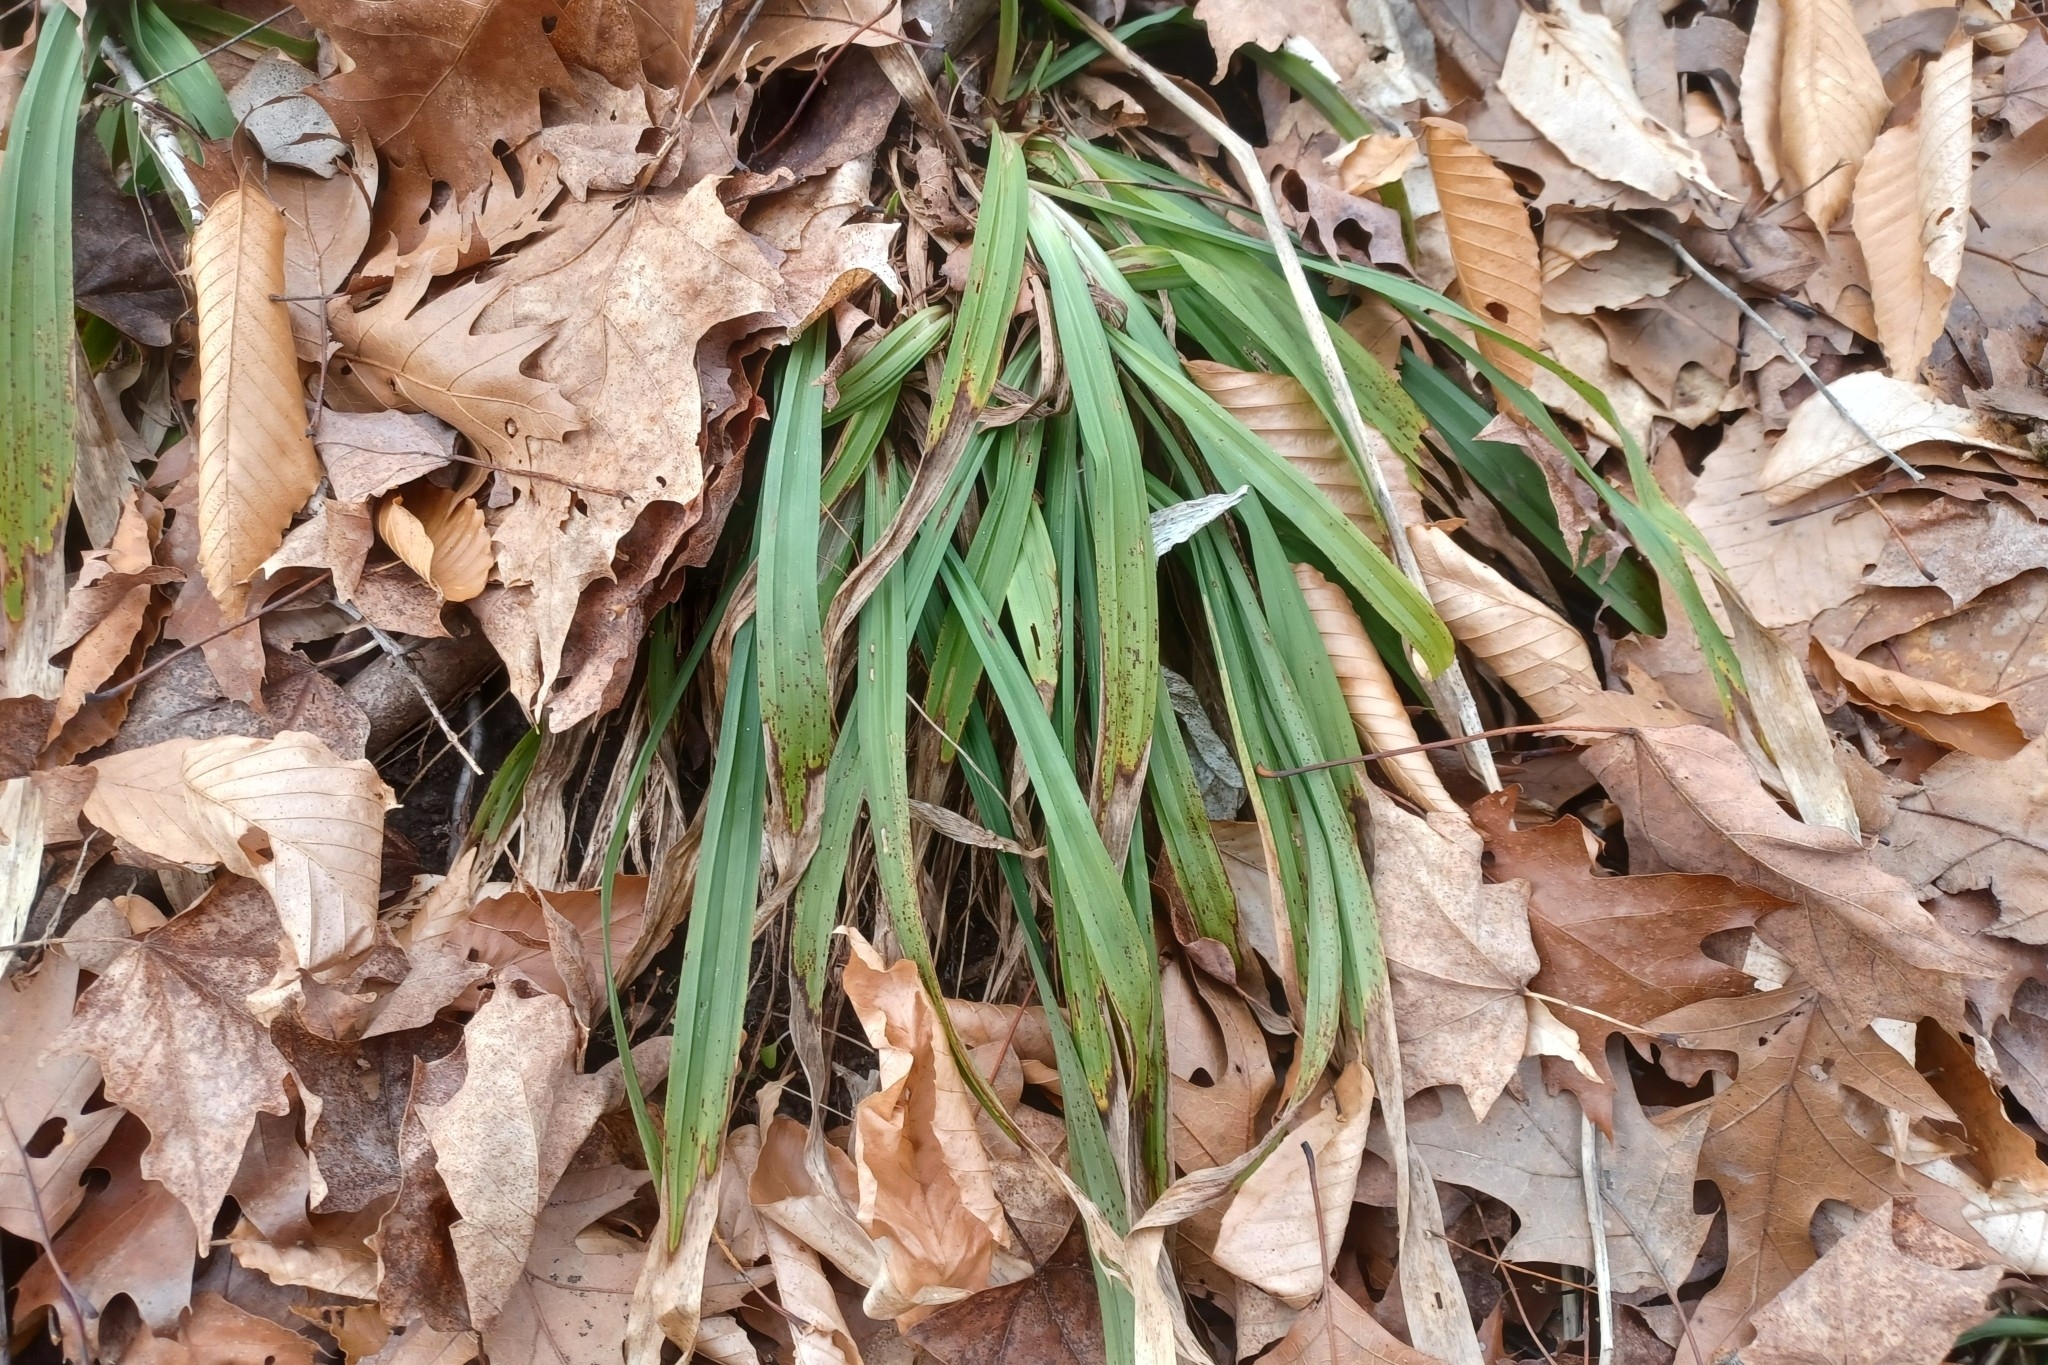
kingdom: Plantae
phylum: Tracheophyta
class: Liliopsida
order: Poales
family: Cyperaceae
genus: Carex
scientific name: Carex careyana
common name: Carey's sedge
